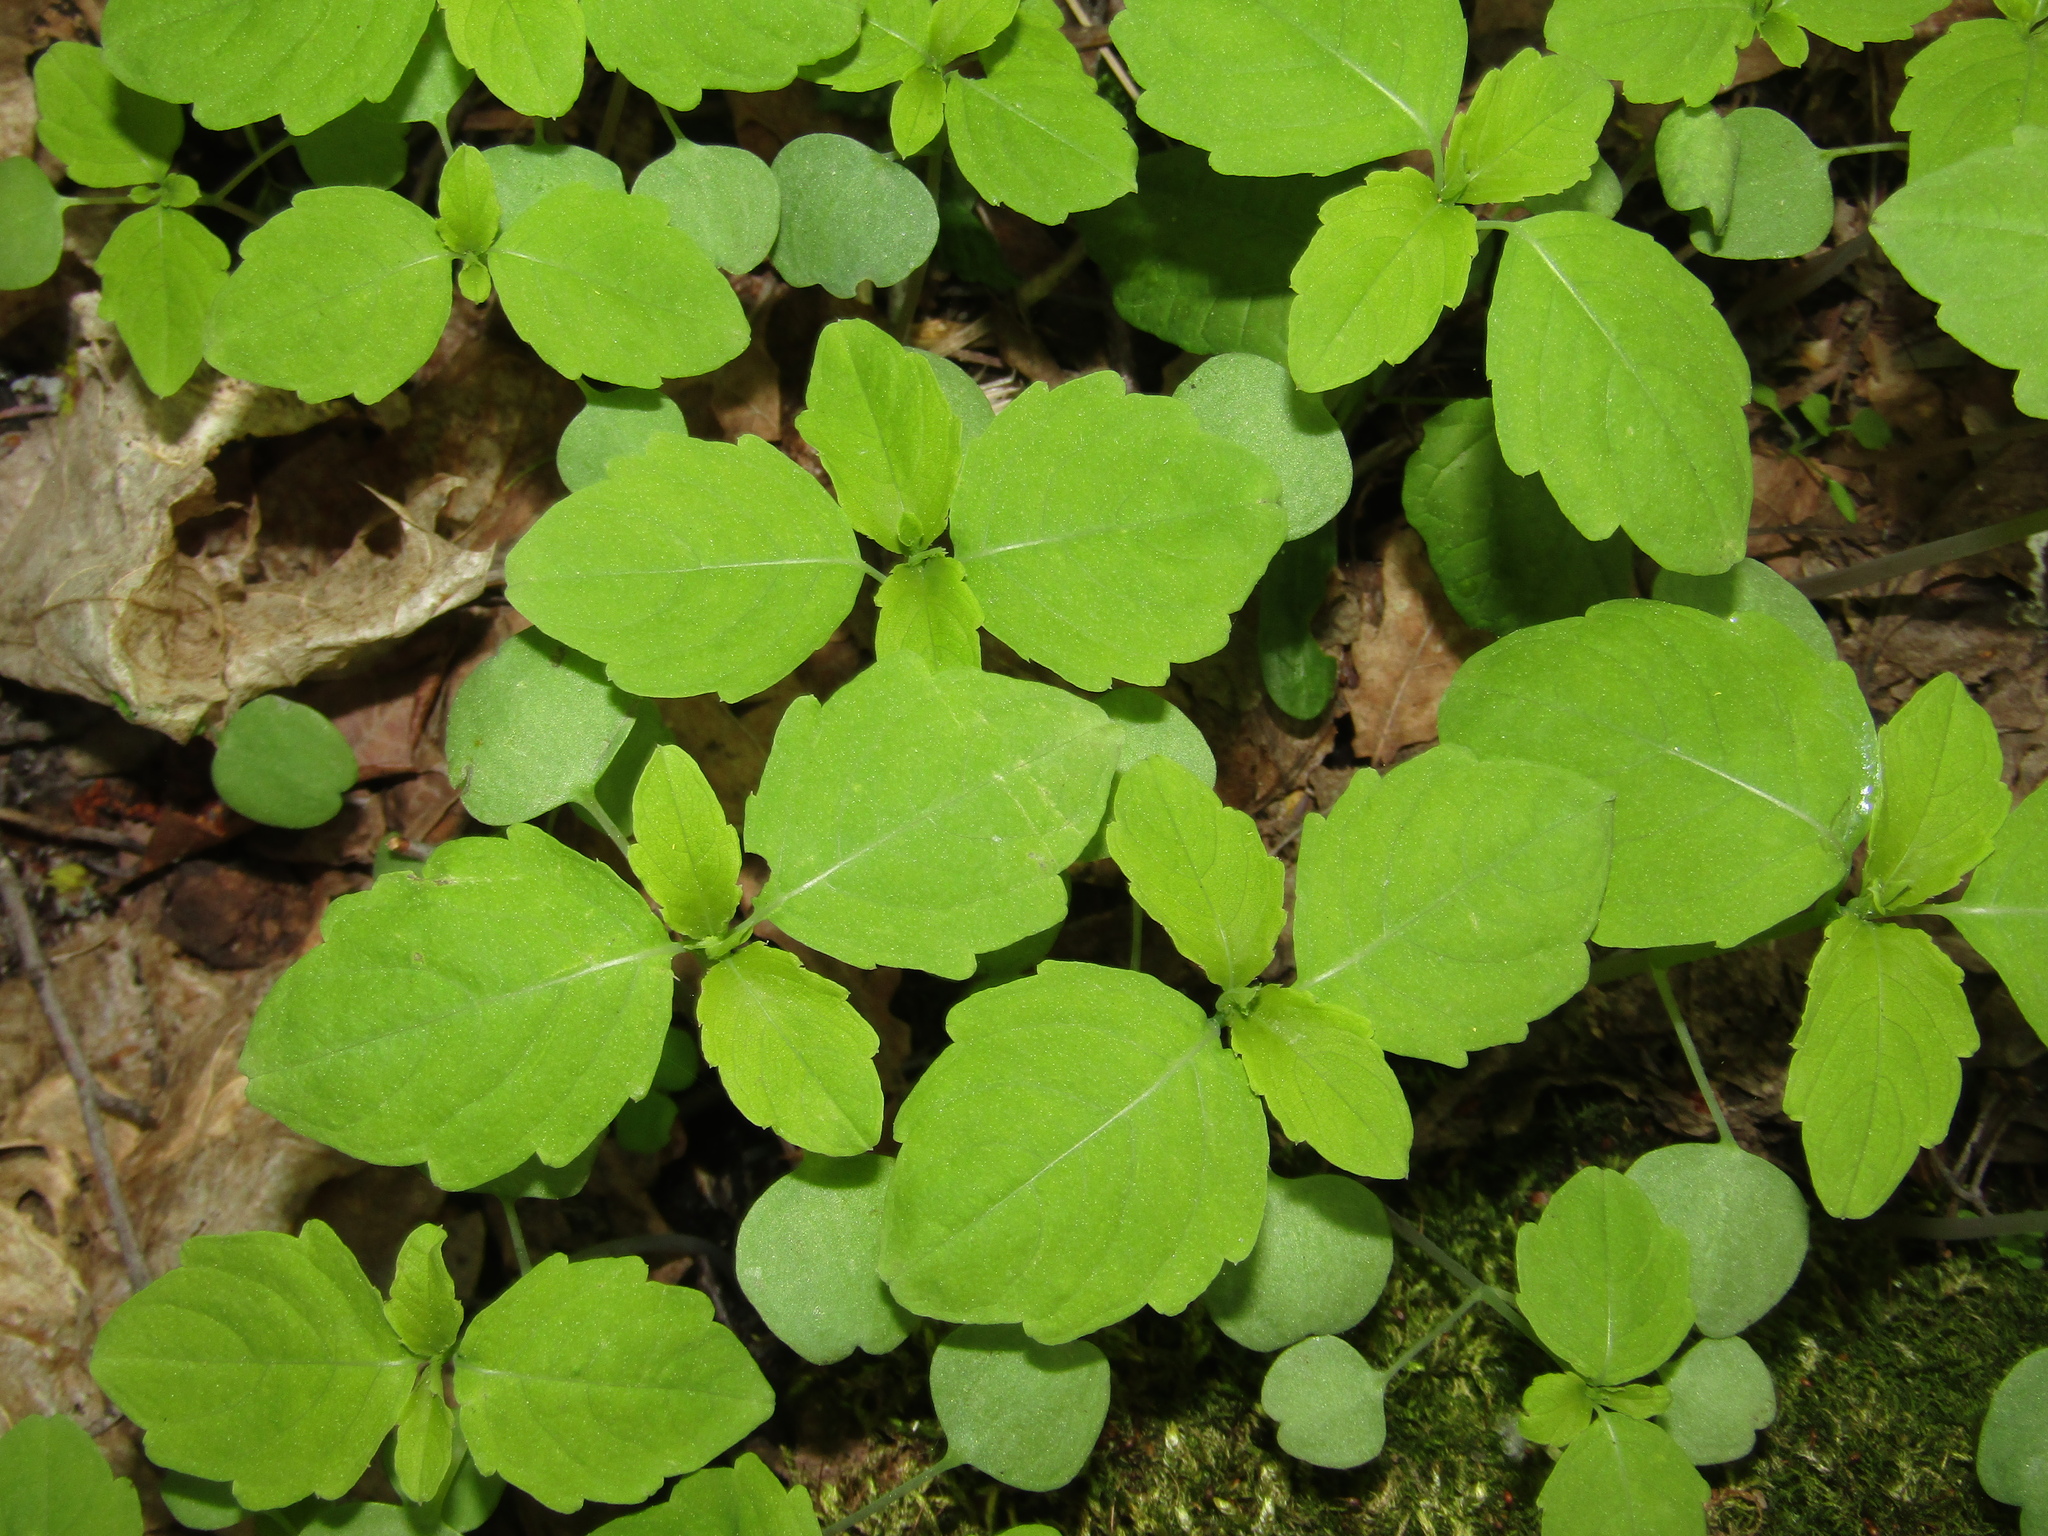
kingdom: Plantae
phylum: Tracheophyta
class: Magnoliopsida
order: Ericales
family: Balsaminaceae
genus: Impatiens
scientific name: Impatiens noli-tangere
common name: Touch-me-not balsam
